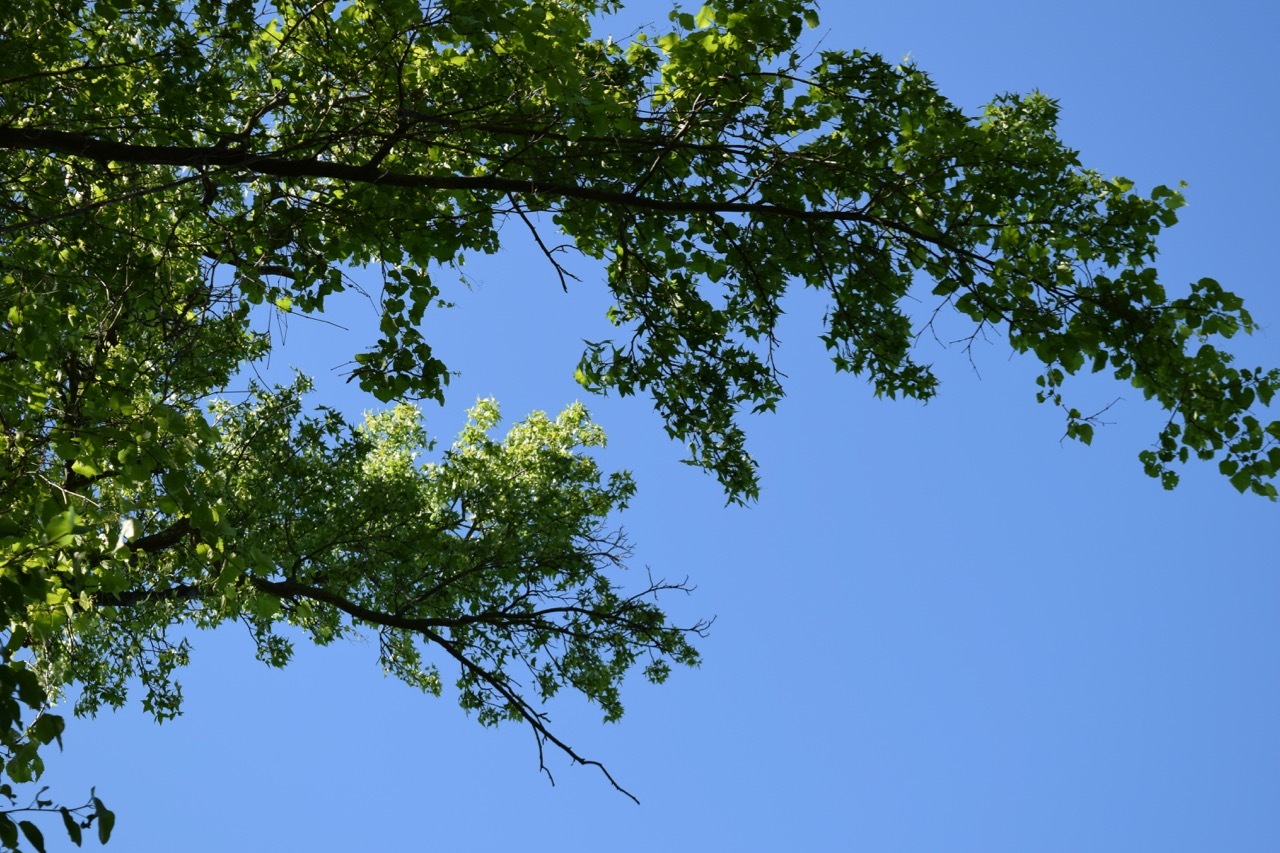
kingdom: Plantae
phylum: Tracheophyta
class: Magnoliopsida
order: Saxifragales
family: Altingiaceae
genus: Liquidambar
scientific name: Liquidambar styraciflua
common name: Sweet gum
